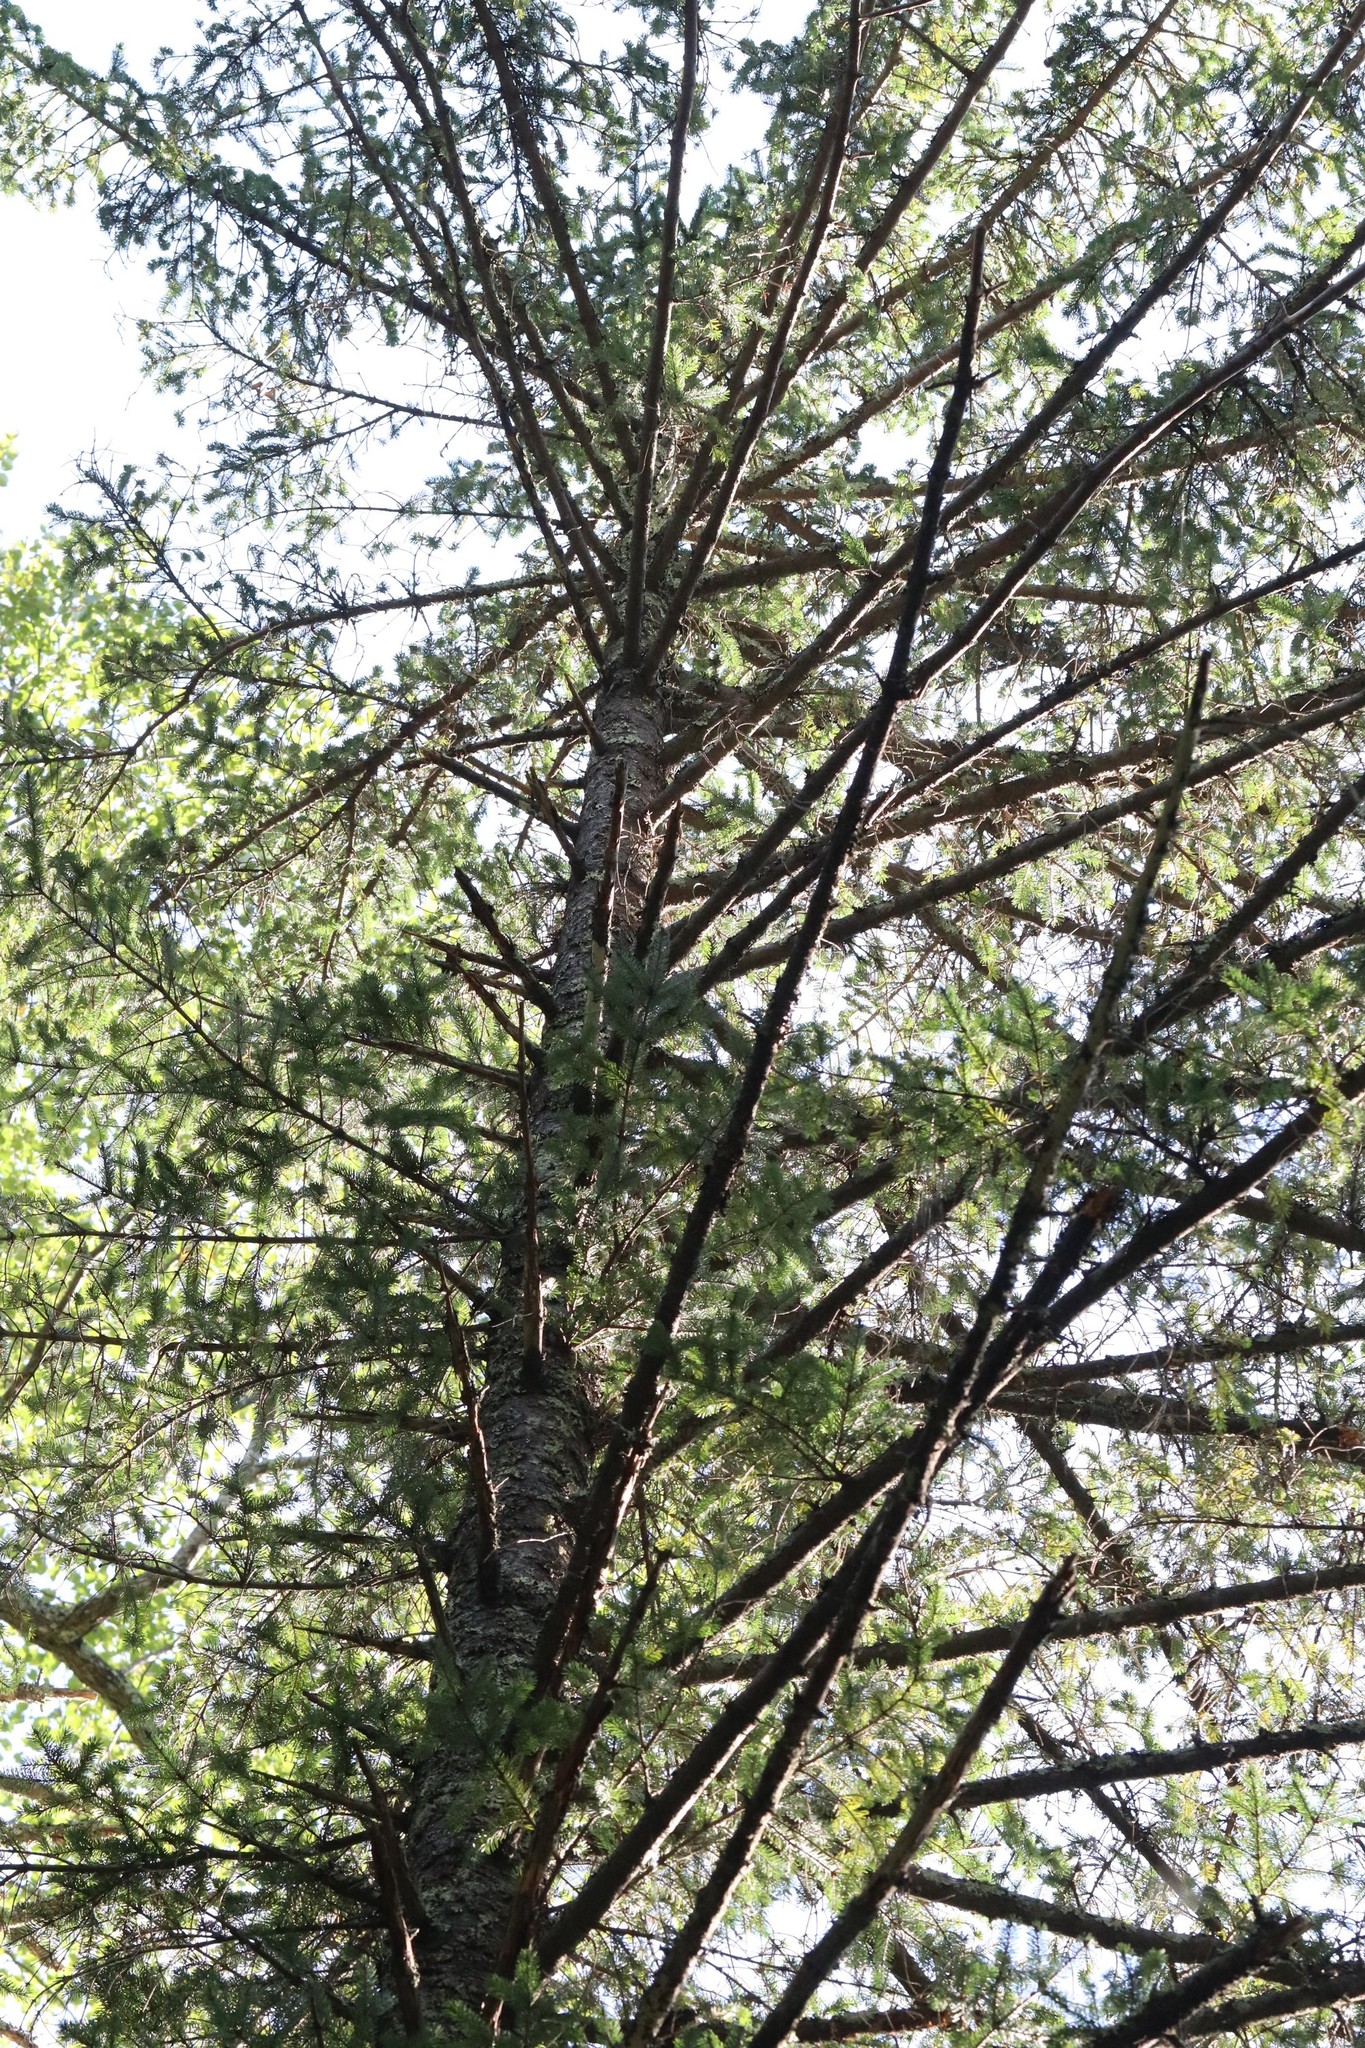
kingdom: Plantae
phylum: Tracheophyta
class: Pinopsida
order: Pinales
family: Pinaceae
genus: Picea
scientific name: Picea jezoensis
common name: Yeddo spruce
